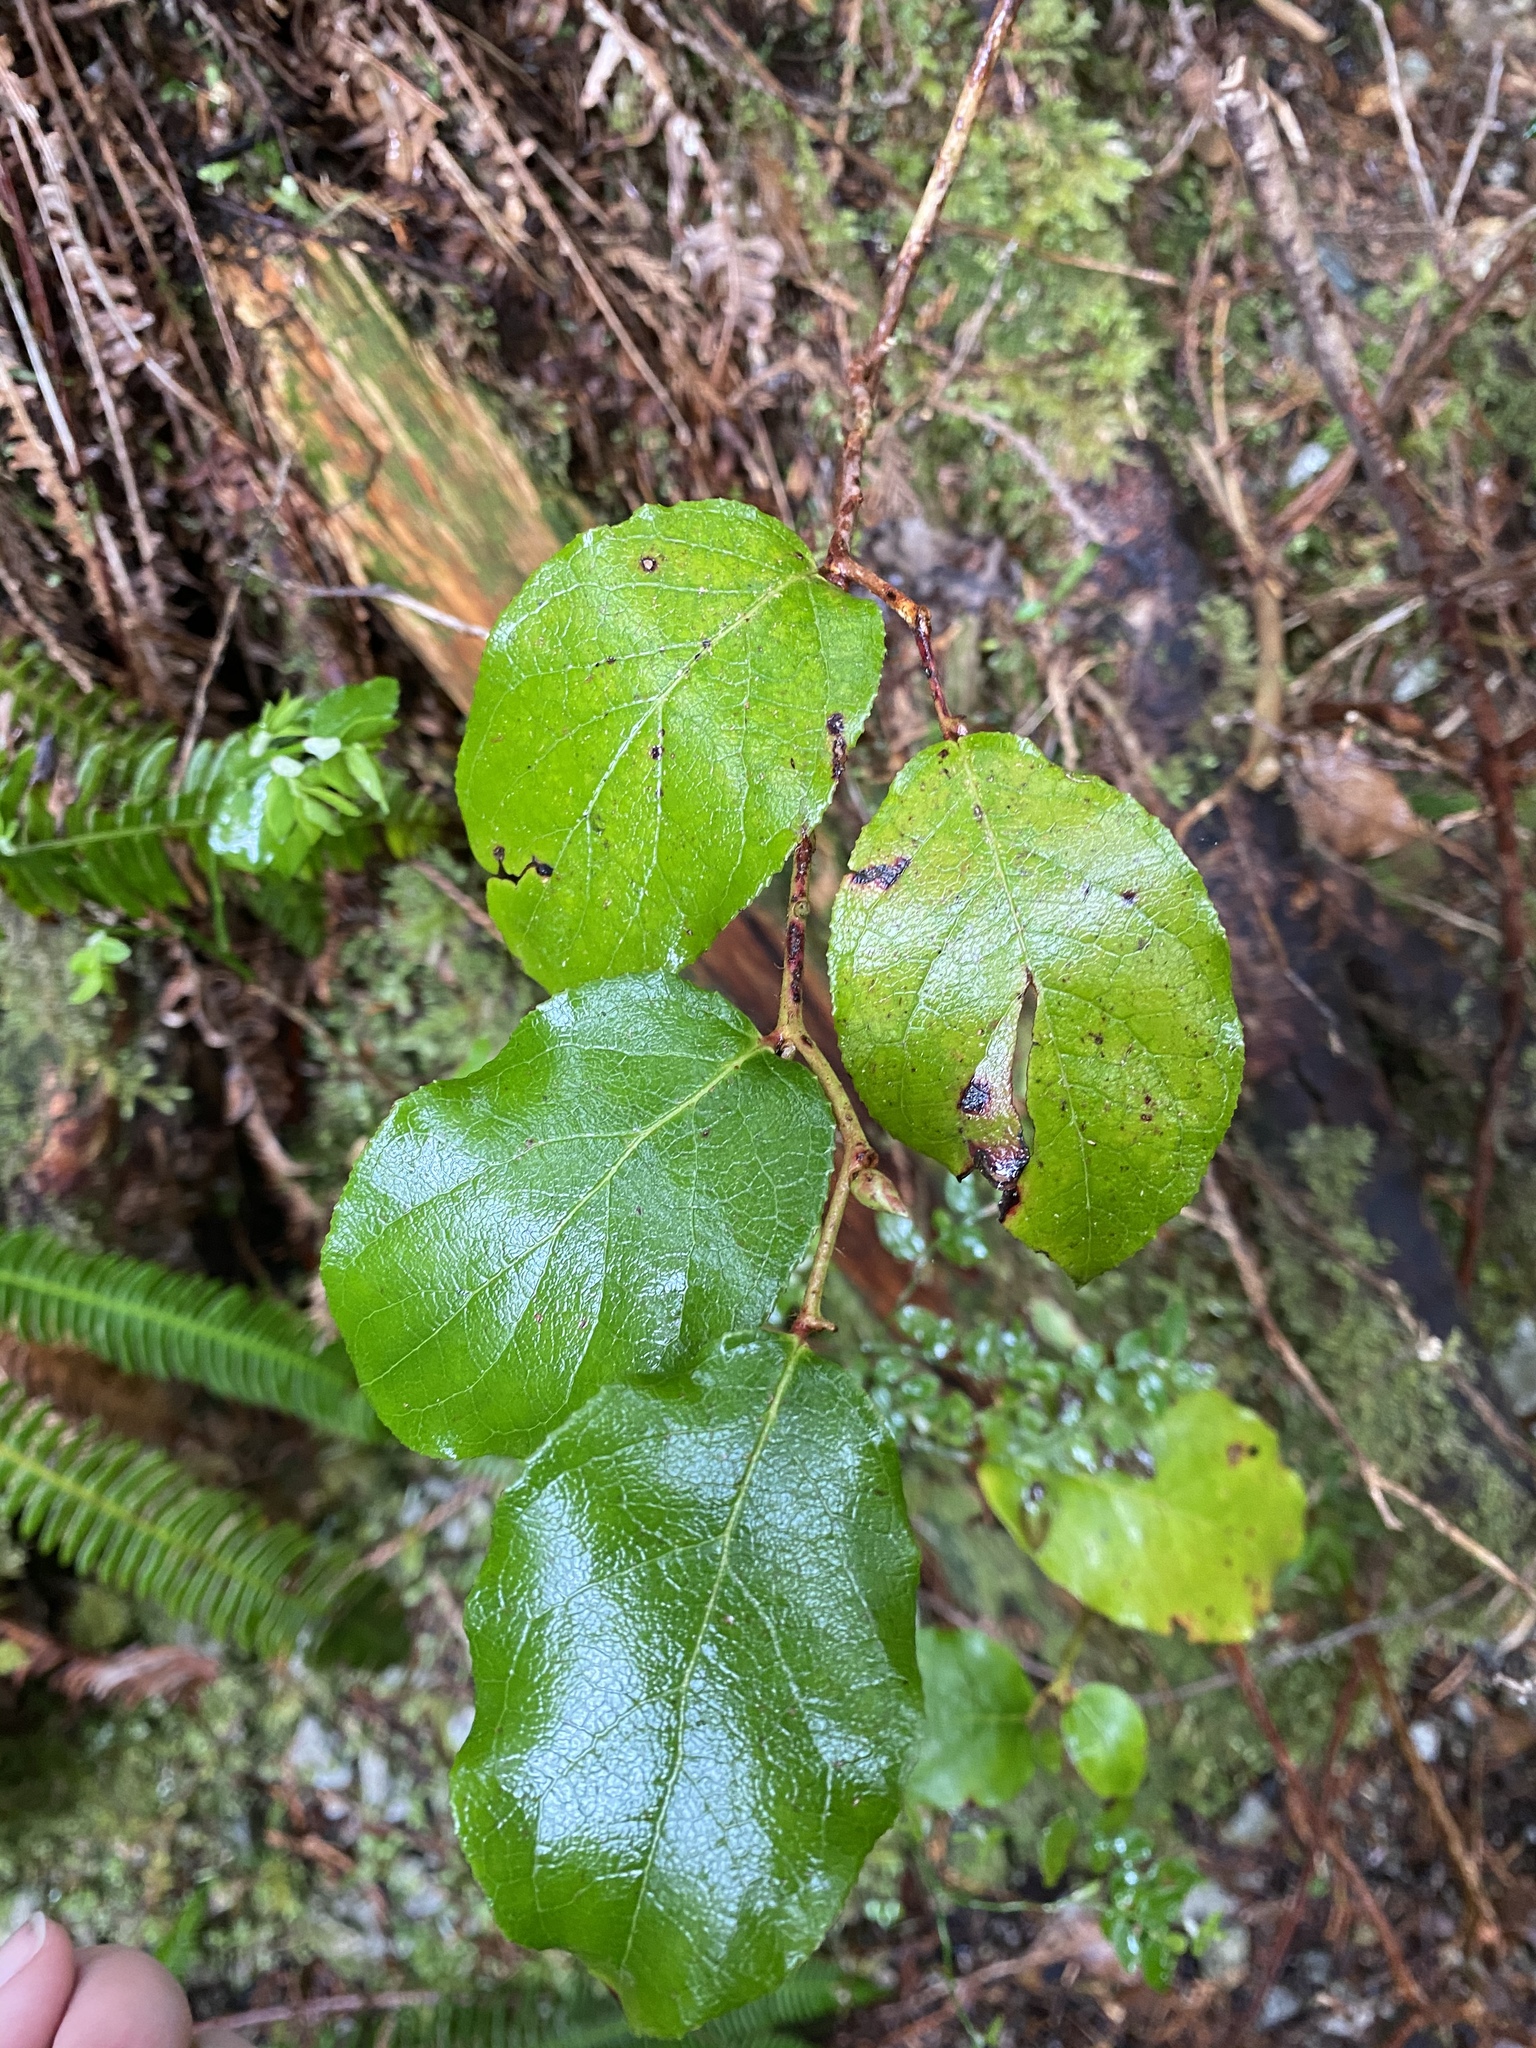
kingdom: Plantae
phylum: Tracheophyta
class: Magnoliopsida
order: Ericales
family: Ericaceae
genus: Gaultheria
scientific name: Gaultheria shallon
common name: Shallon
